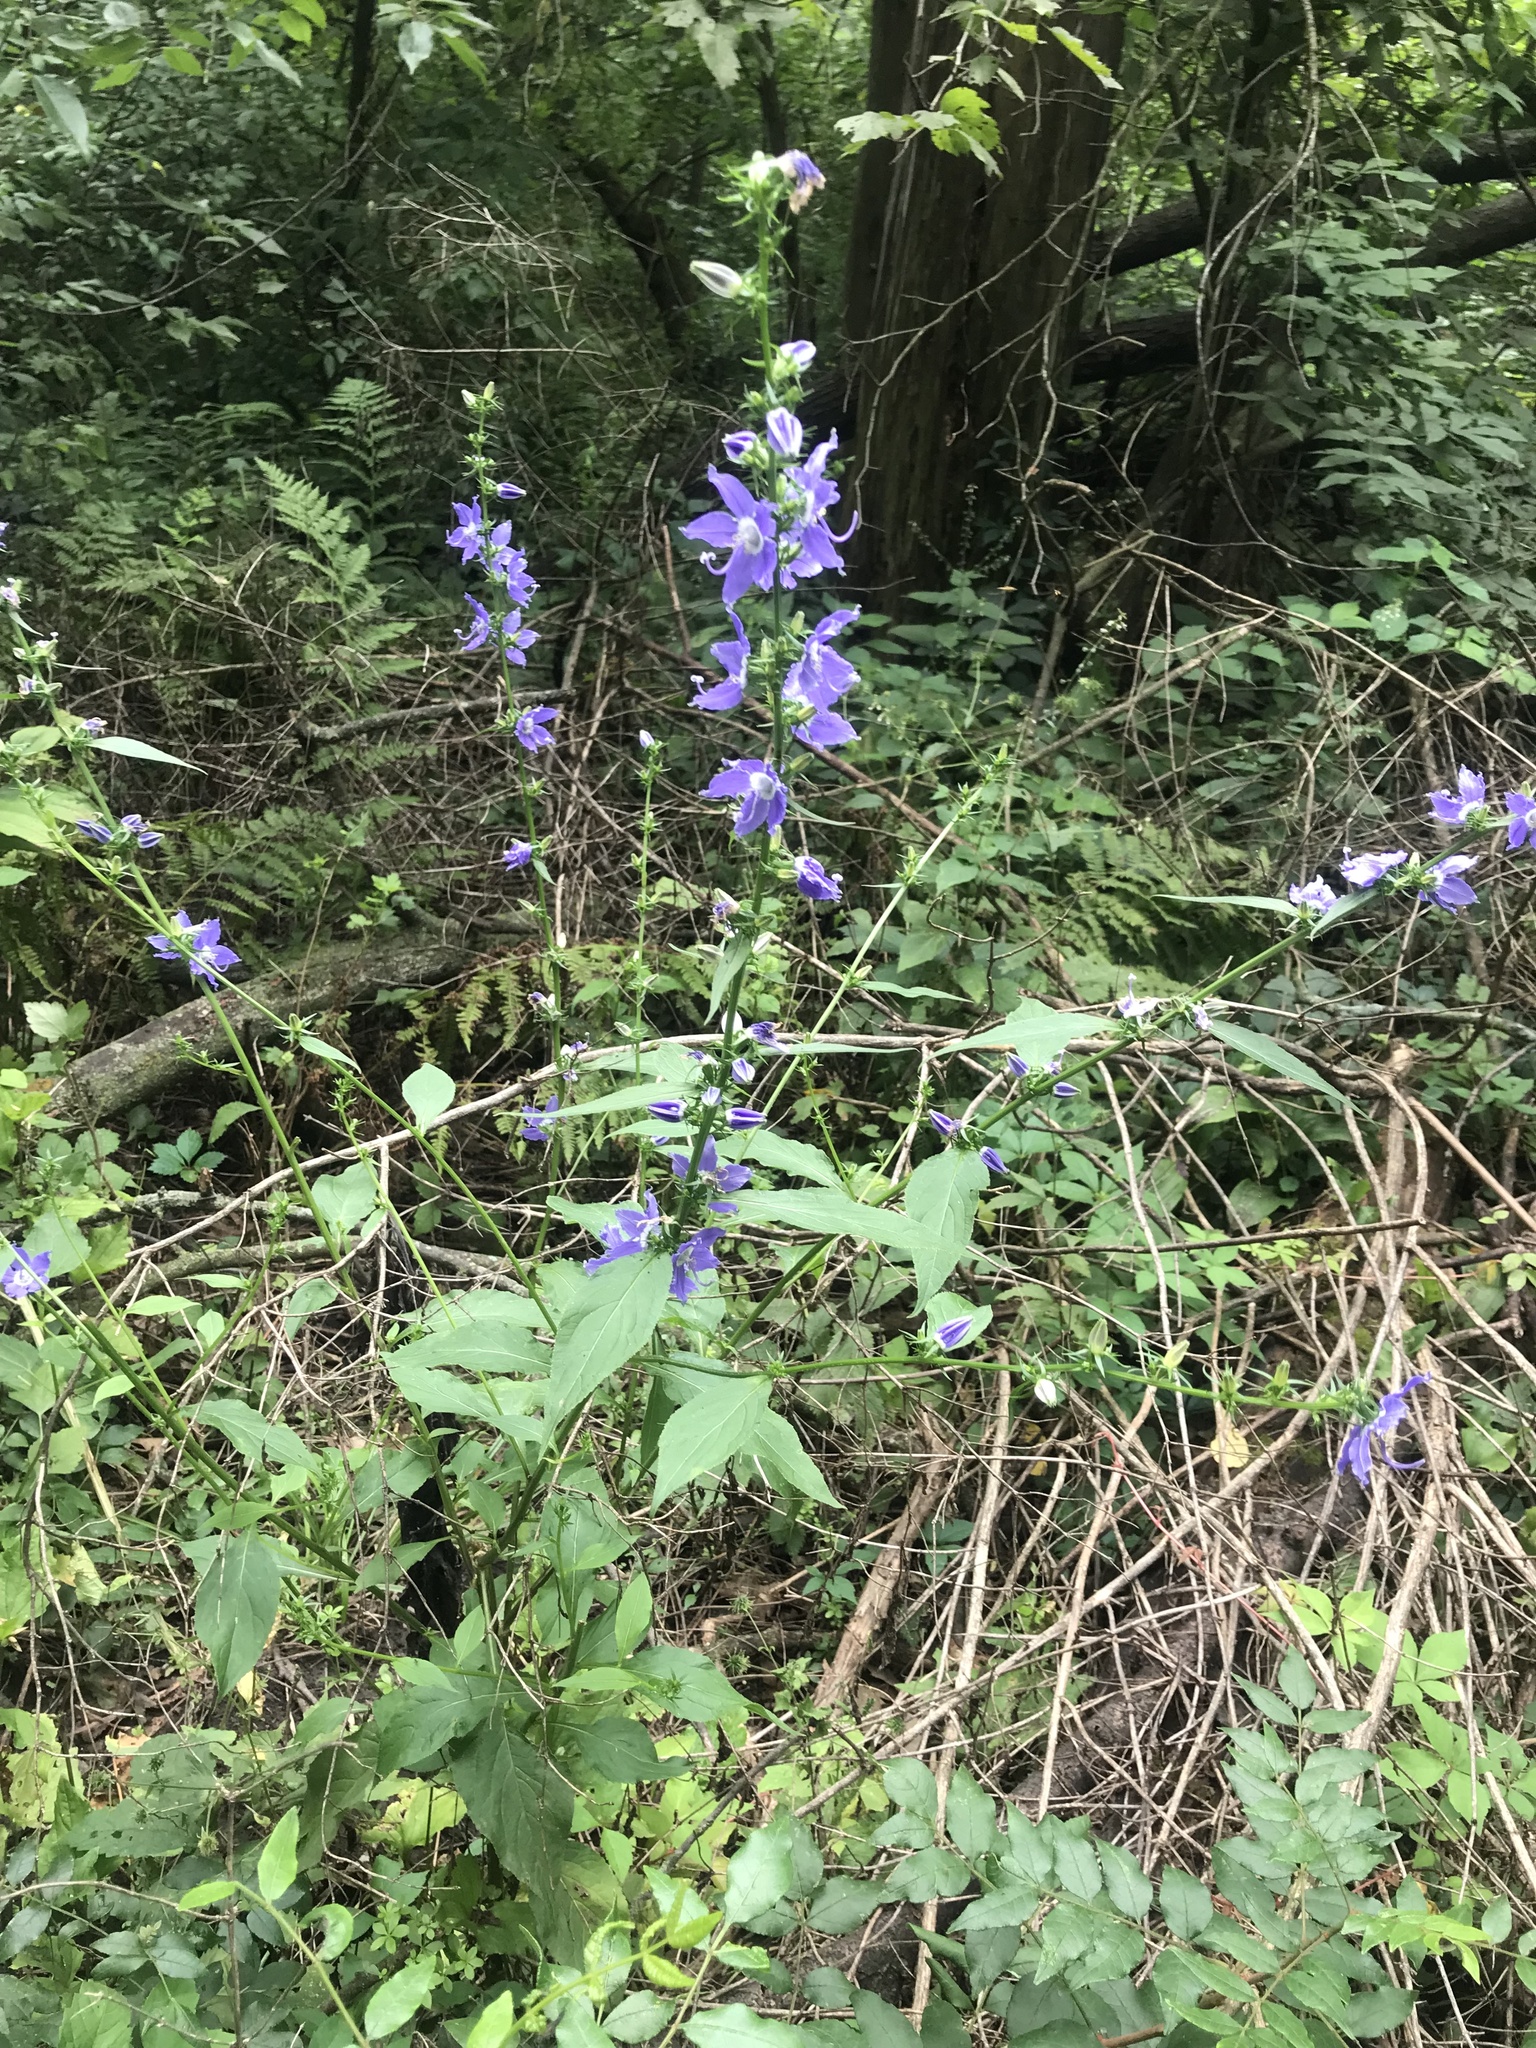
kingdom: Plantae
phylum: Tracheophyta
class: Magnoliopsida
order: Asterales
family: Campanulaceae
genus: Campanulastrum
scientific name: Campanulastrum americanum
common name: American bellflower
